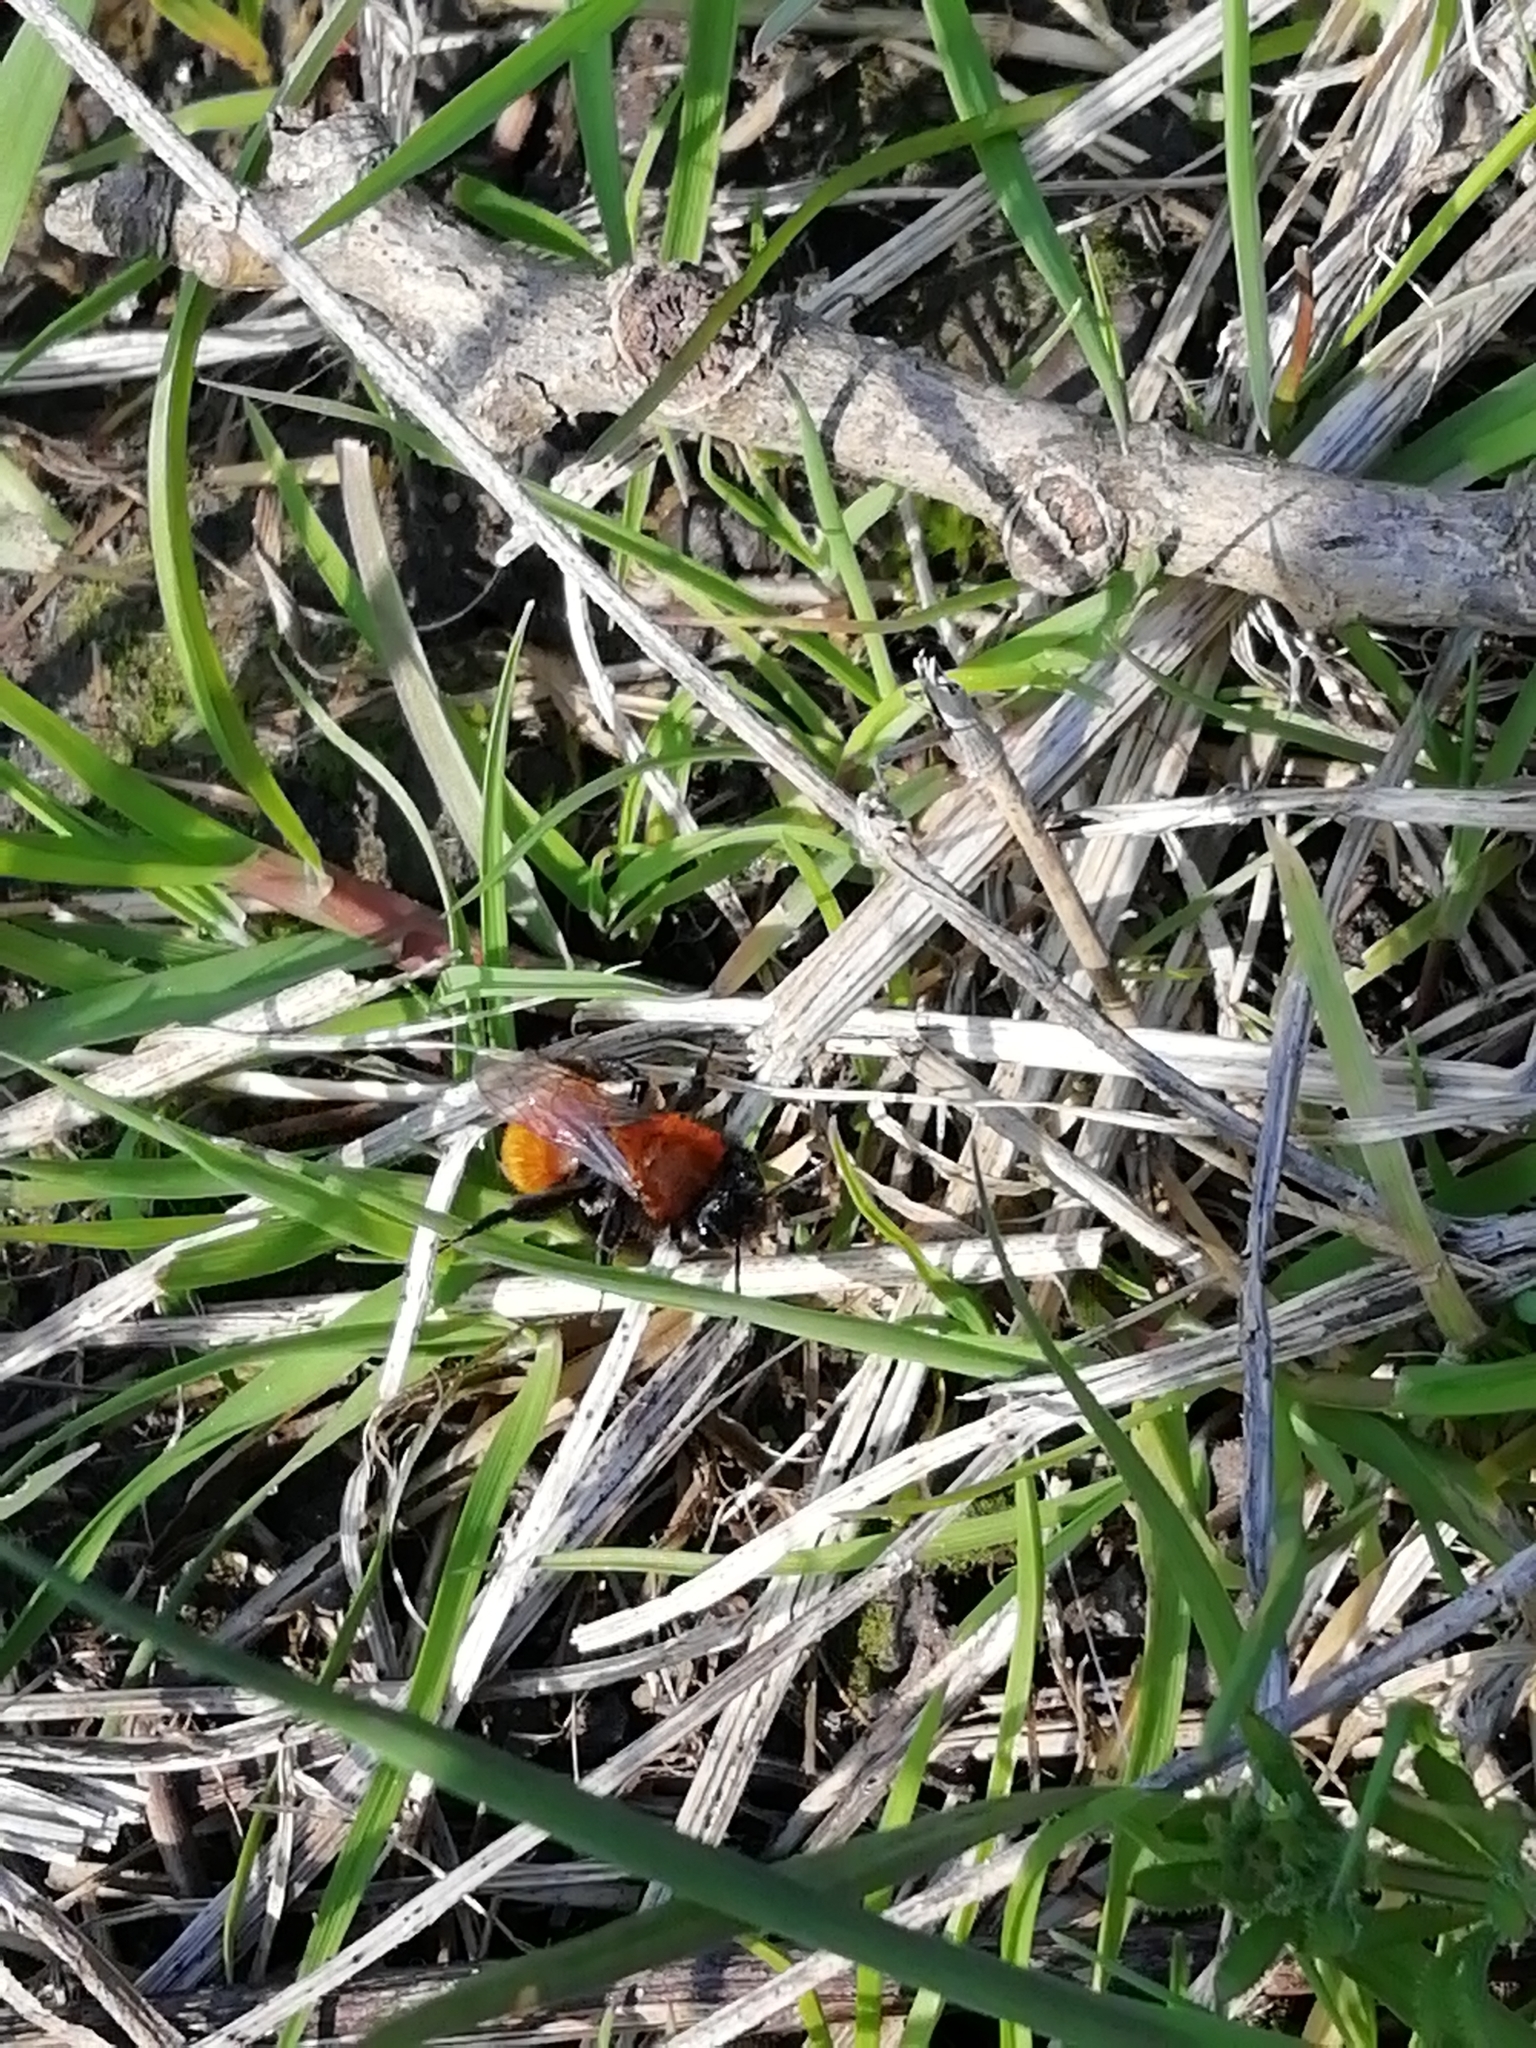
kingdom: Animalia
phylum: Arthropoda
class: Insecta
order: Hymenoptera
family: Andrenidae
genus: Andrena
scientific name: Andrena fulva
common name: Tawny mining bee
